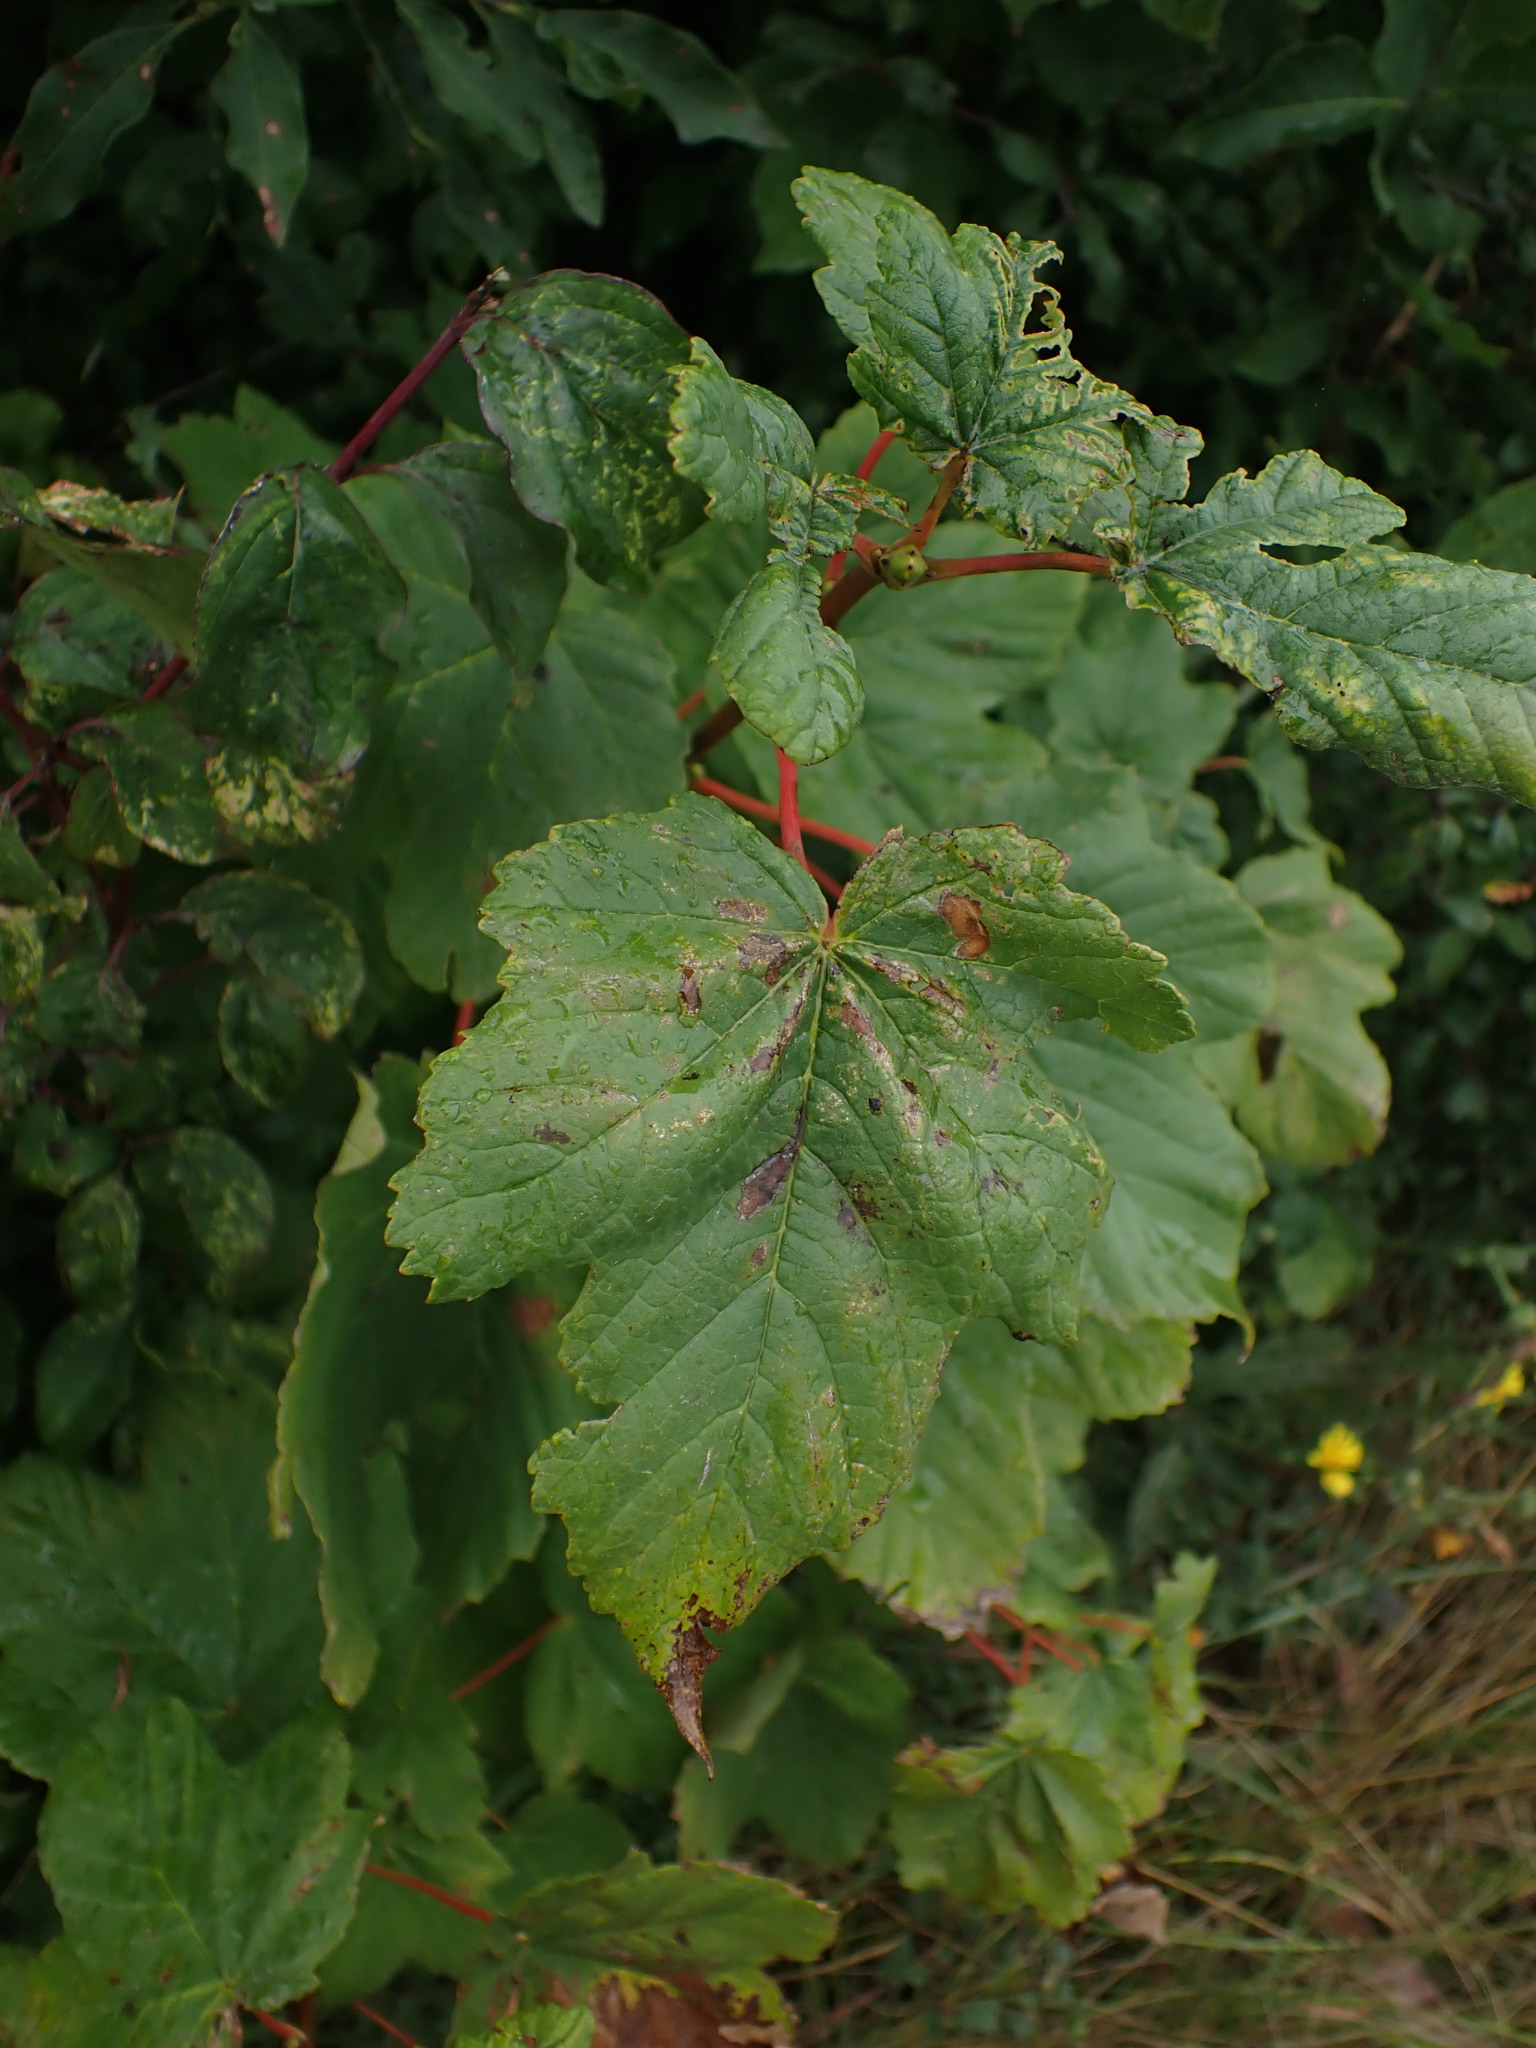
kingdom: Plantae
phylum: Tracheophyta
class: Magnoliopsida
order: Sapindales
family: Sapindaceae
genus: Acer
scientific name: Acer pseudoplatanus
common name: Sycamore
